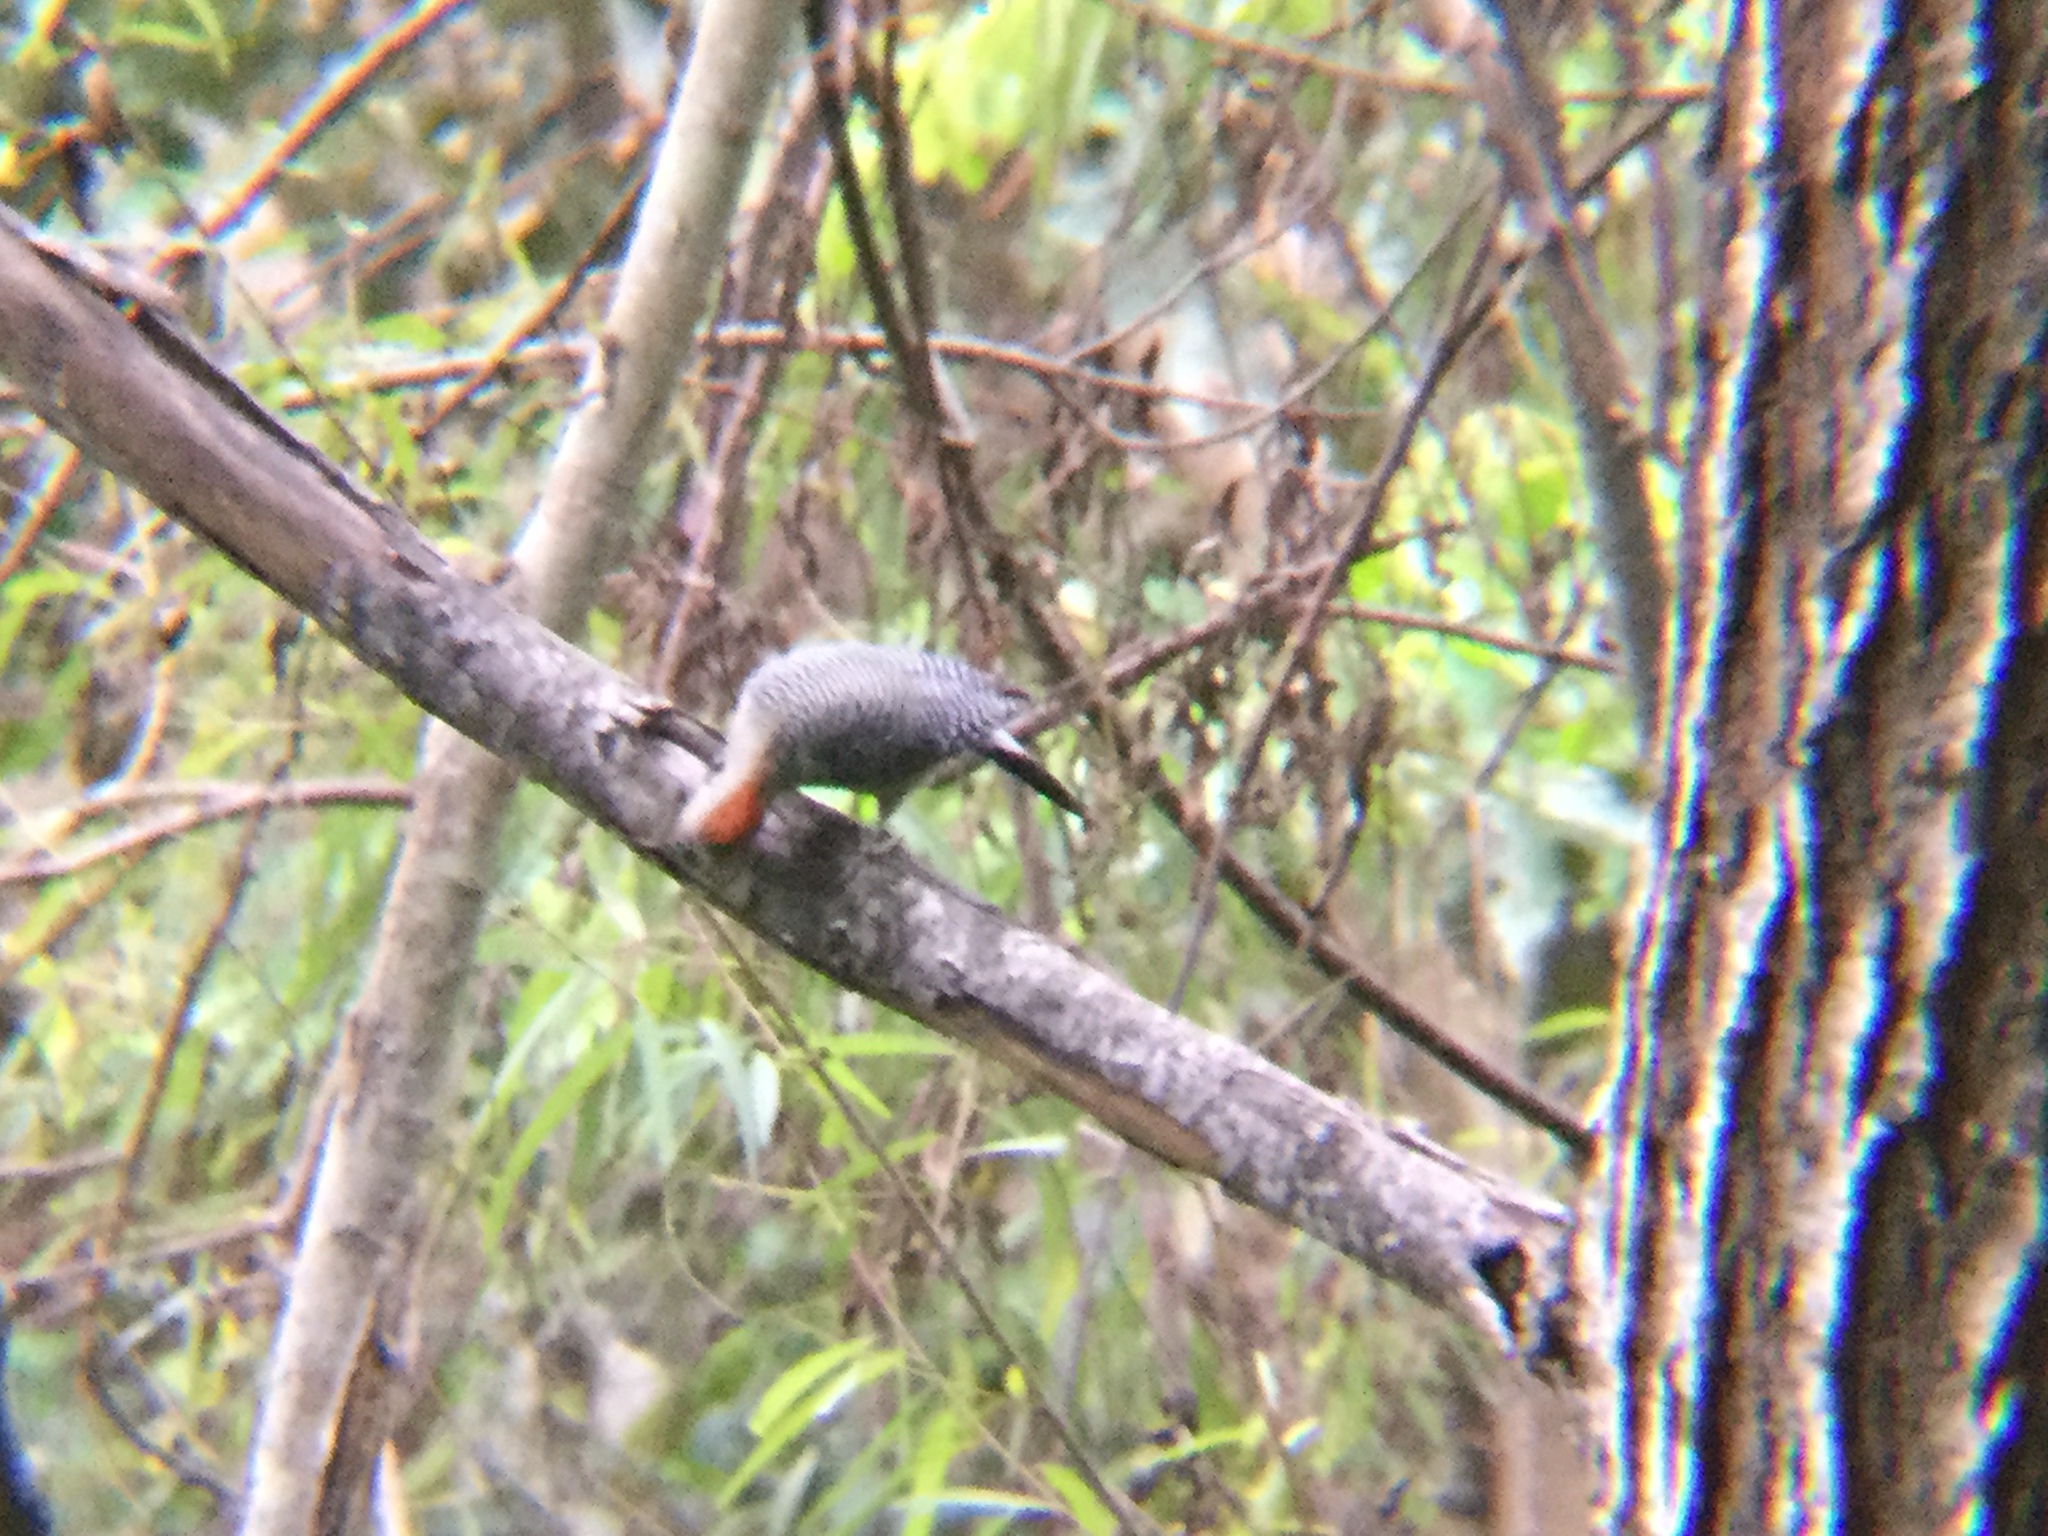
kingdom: Animalia
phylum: Chordata
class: Aves
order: Piciformes
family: Picidae
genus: Melanerpes
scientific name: Melanerpes aurifrons
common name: Golden-fronted woodpecker
